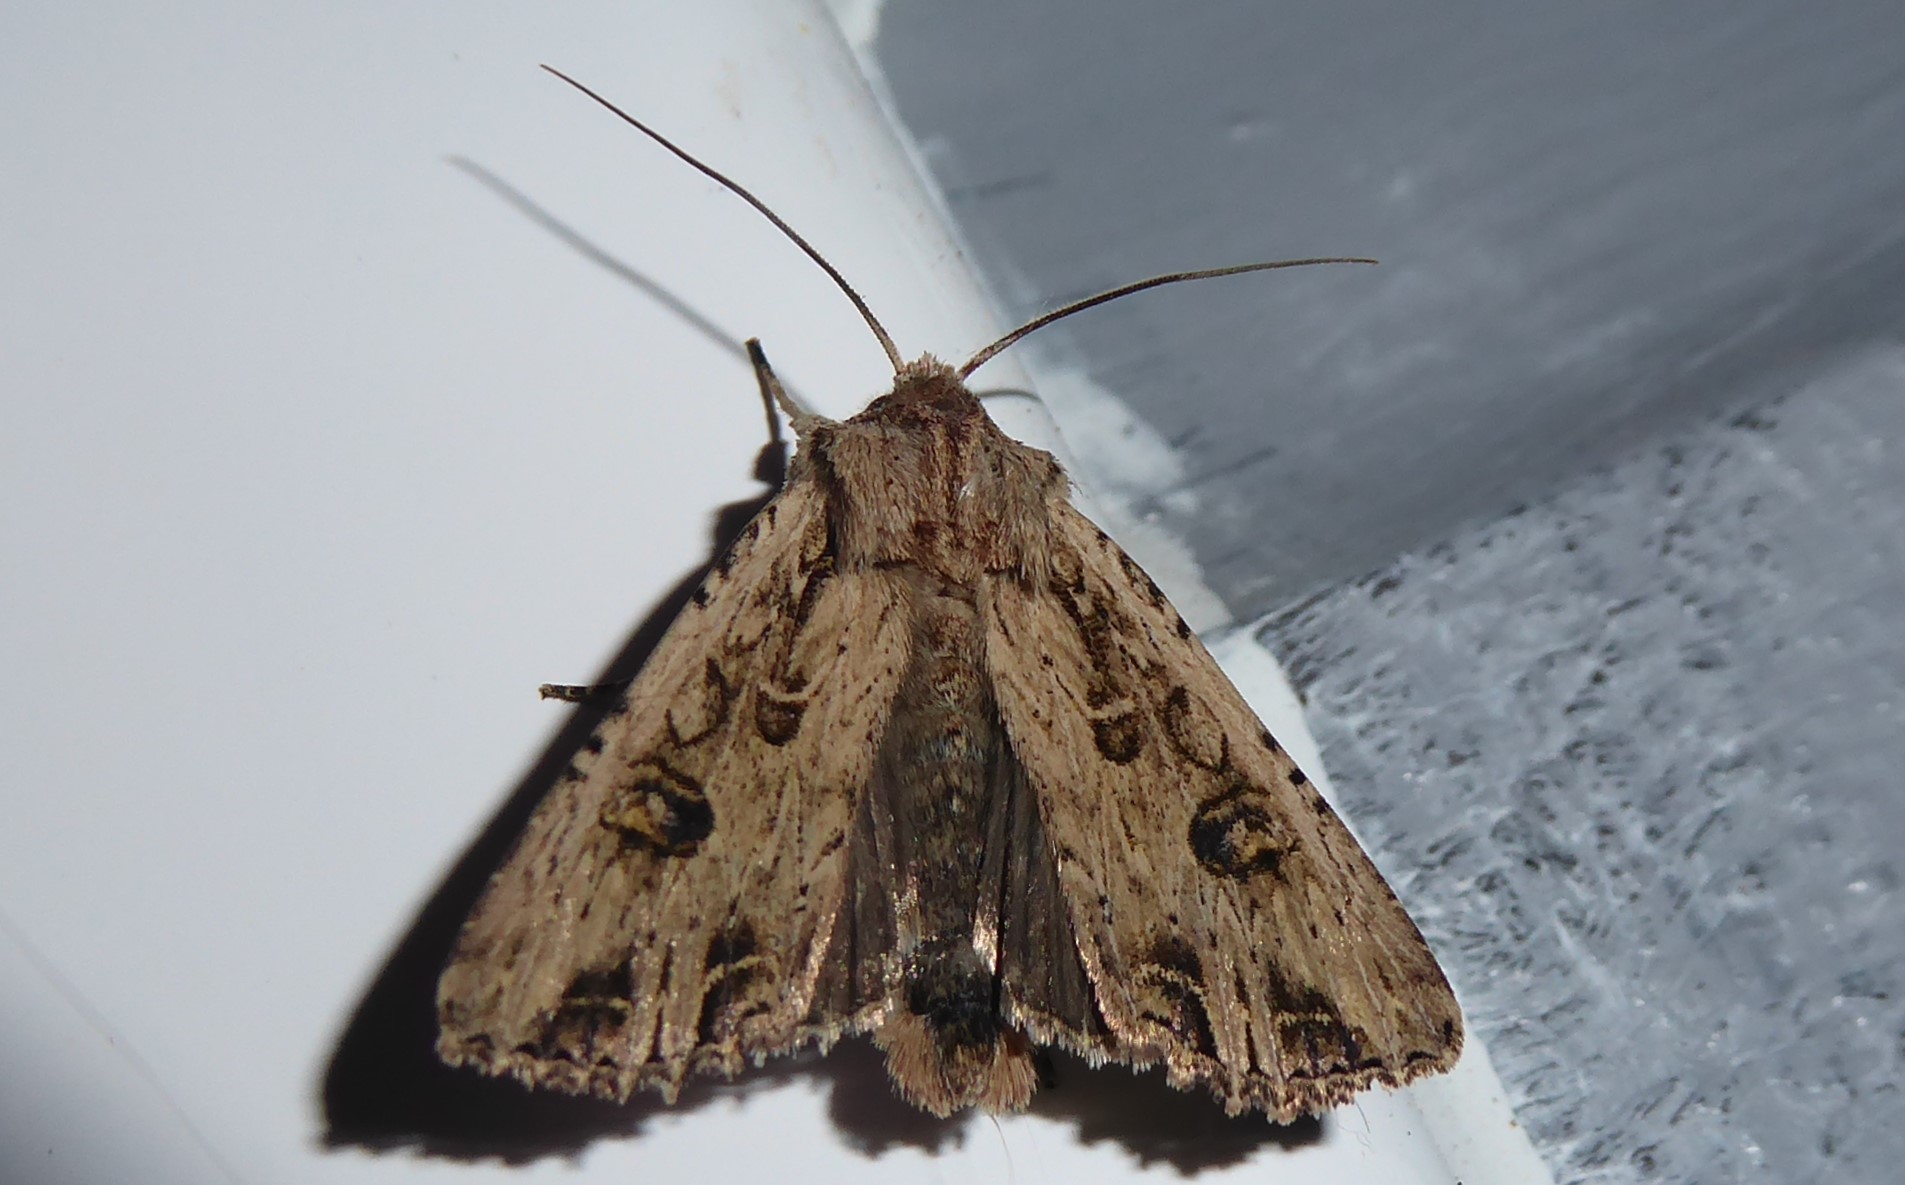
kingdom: Animalia
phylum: Arthropoda
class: Insecta
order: Lepidoptera
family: Noctuidae
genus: Ichneutica
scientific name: Ichneutica lignana
